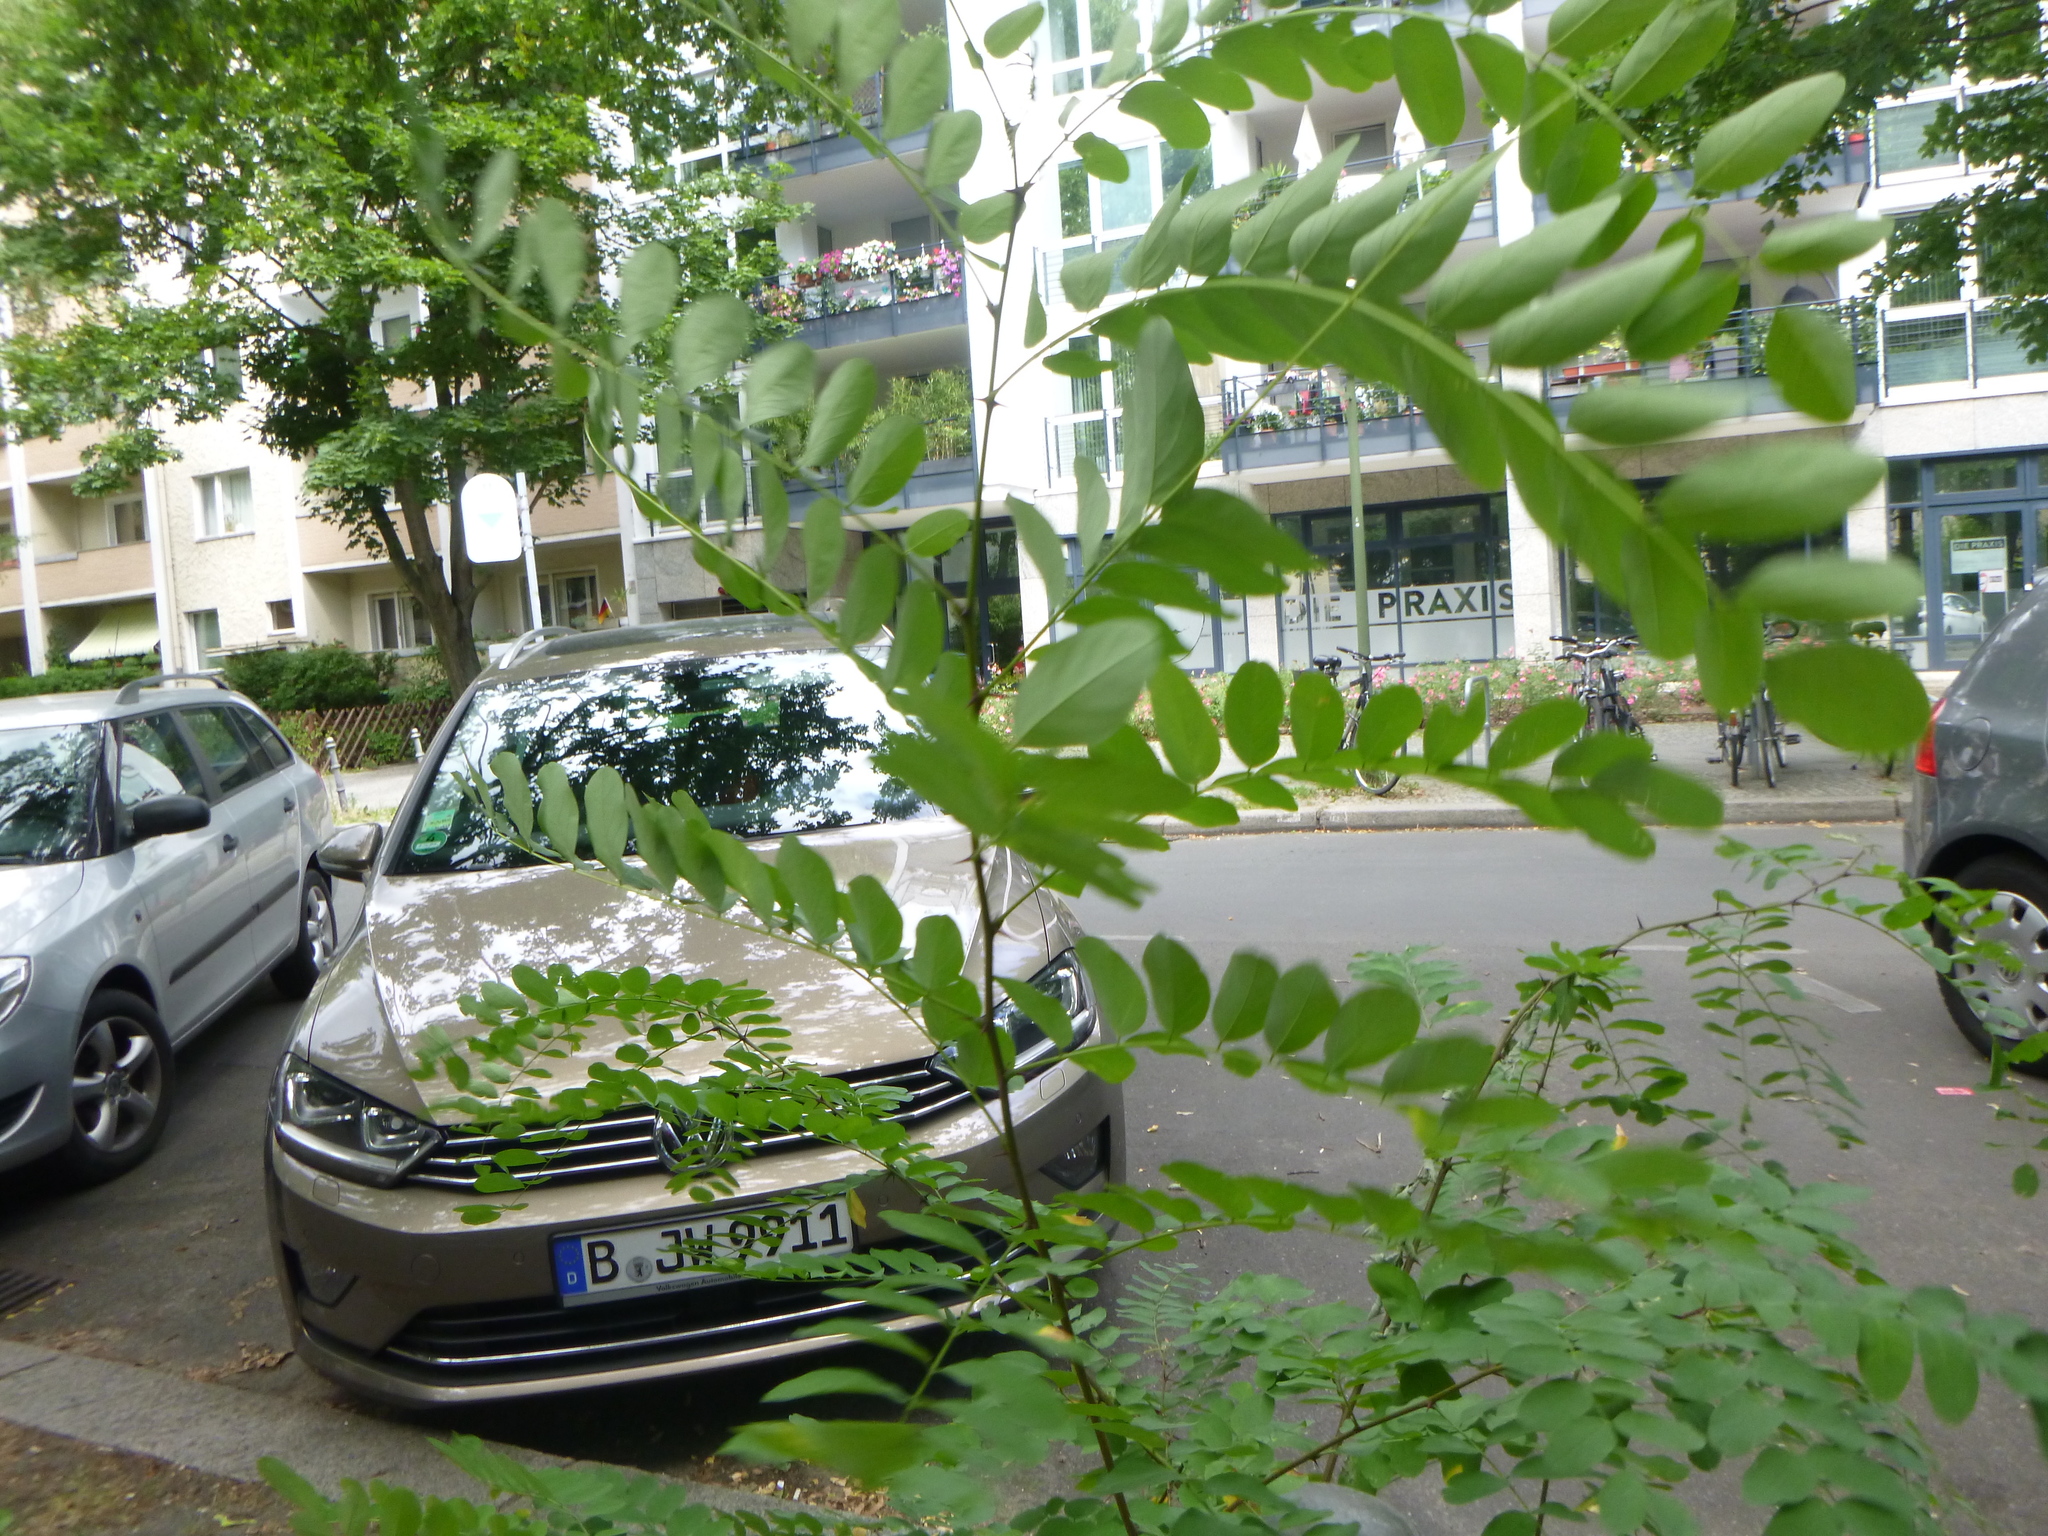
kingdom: Plantae
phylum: Tracheophyta
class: Magnoliopsida
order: Fabales
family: Fabaceae
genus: Robinia
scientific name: Robinia pseudoacacia
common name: Black locust
